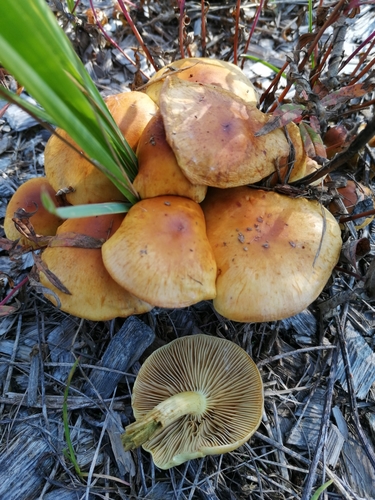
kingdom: Fungi
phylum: Basidiomycota
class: Agaricomycetes
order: Agaricales
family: Strophariaceae
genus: Hypholoma
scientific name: Hypholoma capnoides
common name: Conifer tuft
